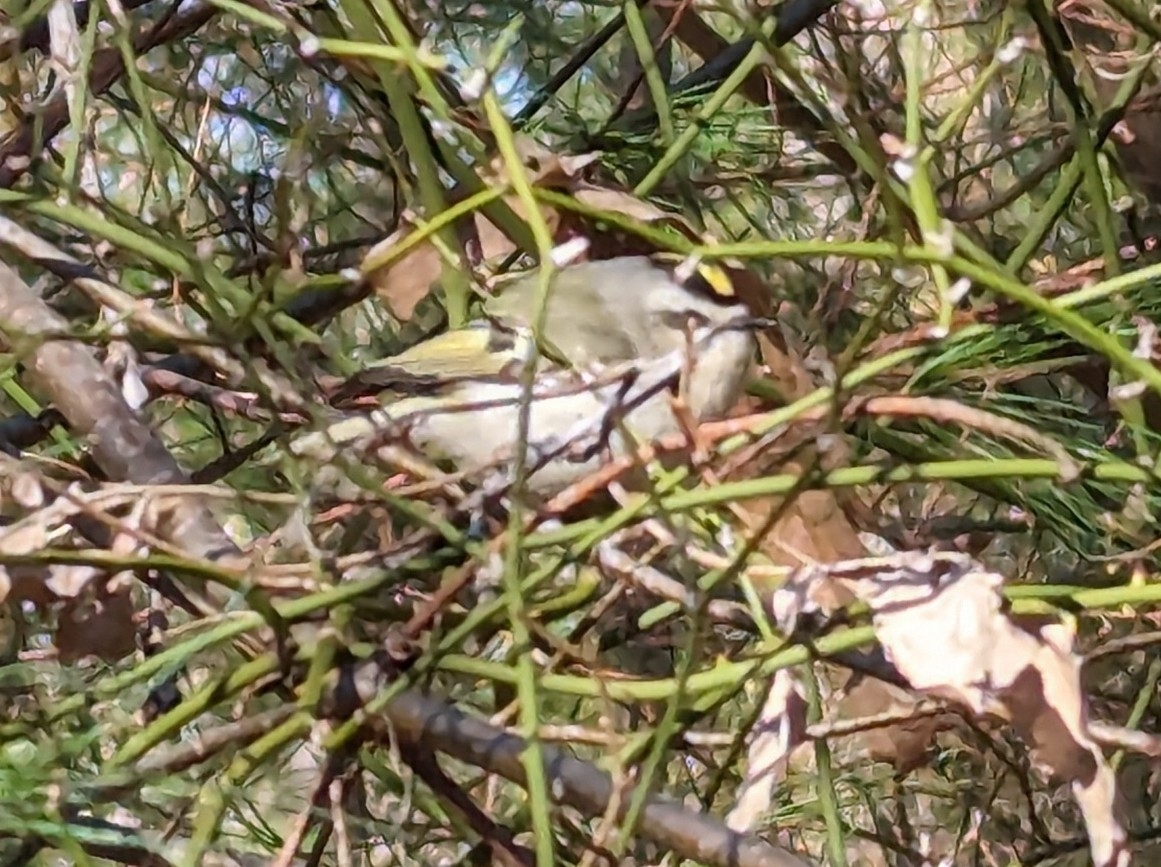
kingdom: Animalia
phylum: Chordata
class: Aves
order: Passeriformes
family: Regulidae
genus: Regulus
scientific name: Regulus satrapa
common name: Golden-crowned kinglet
